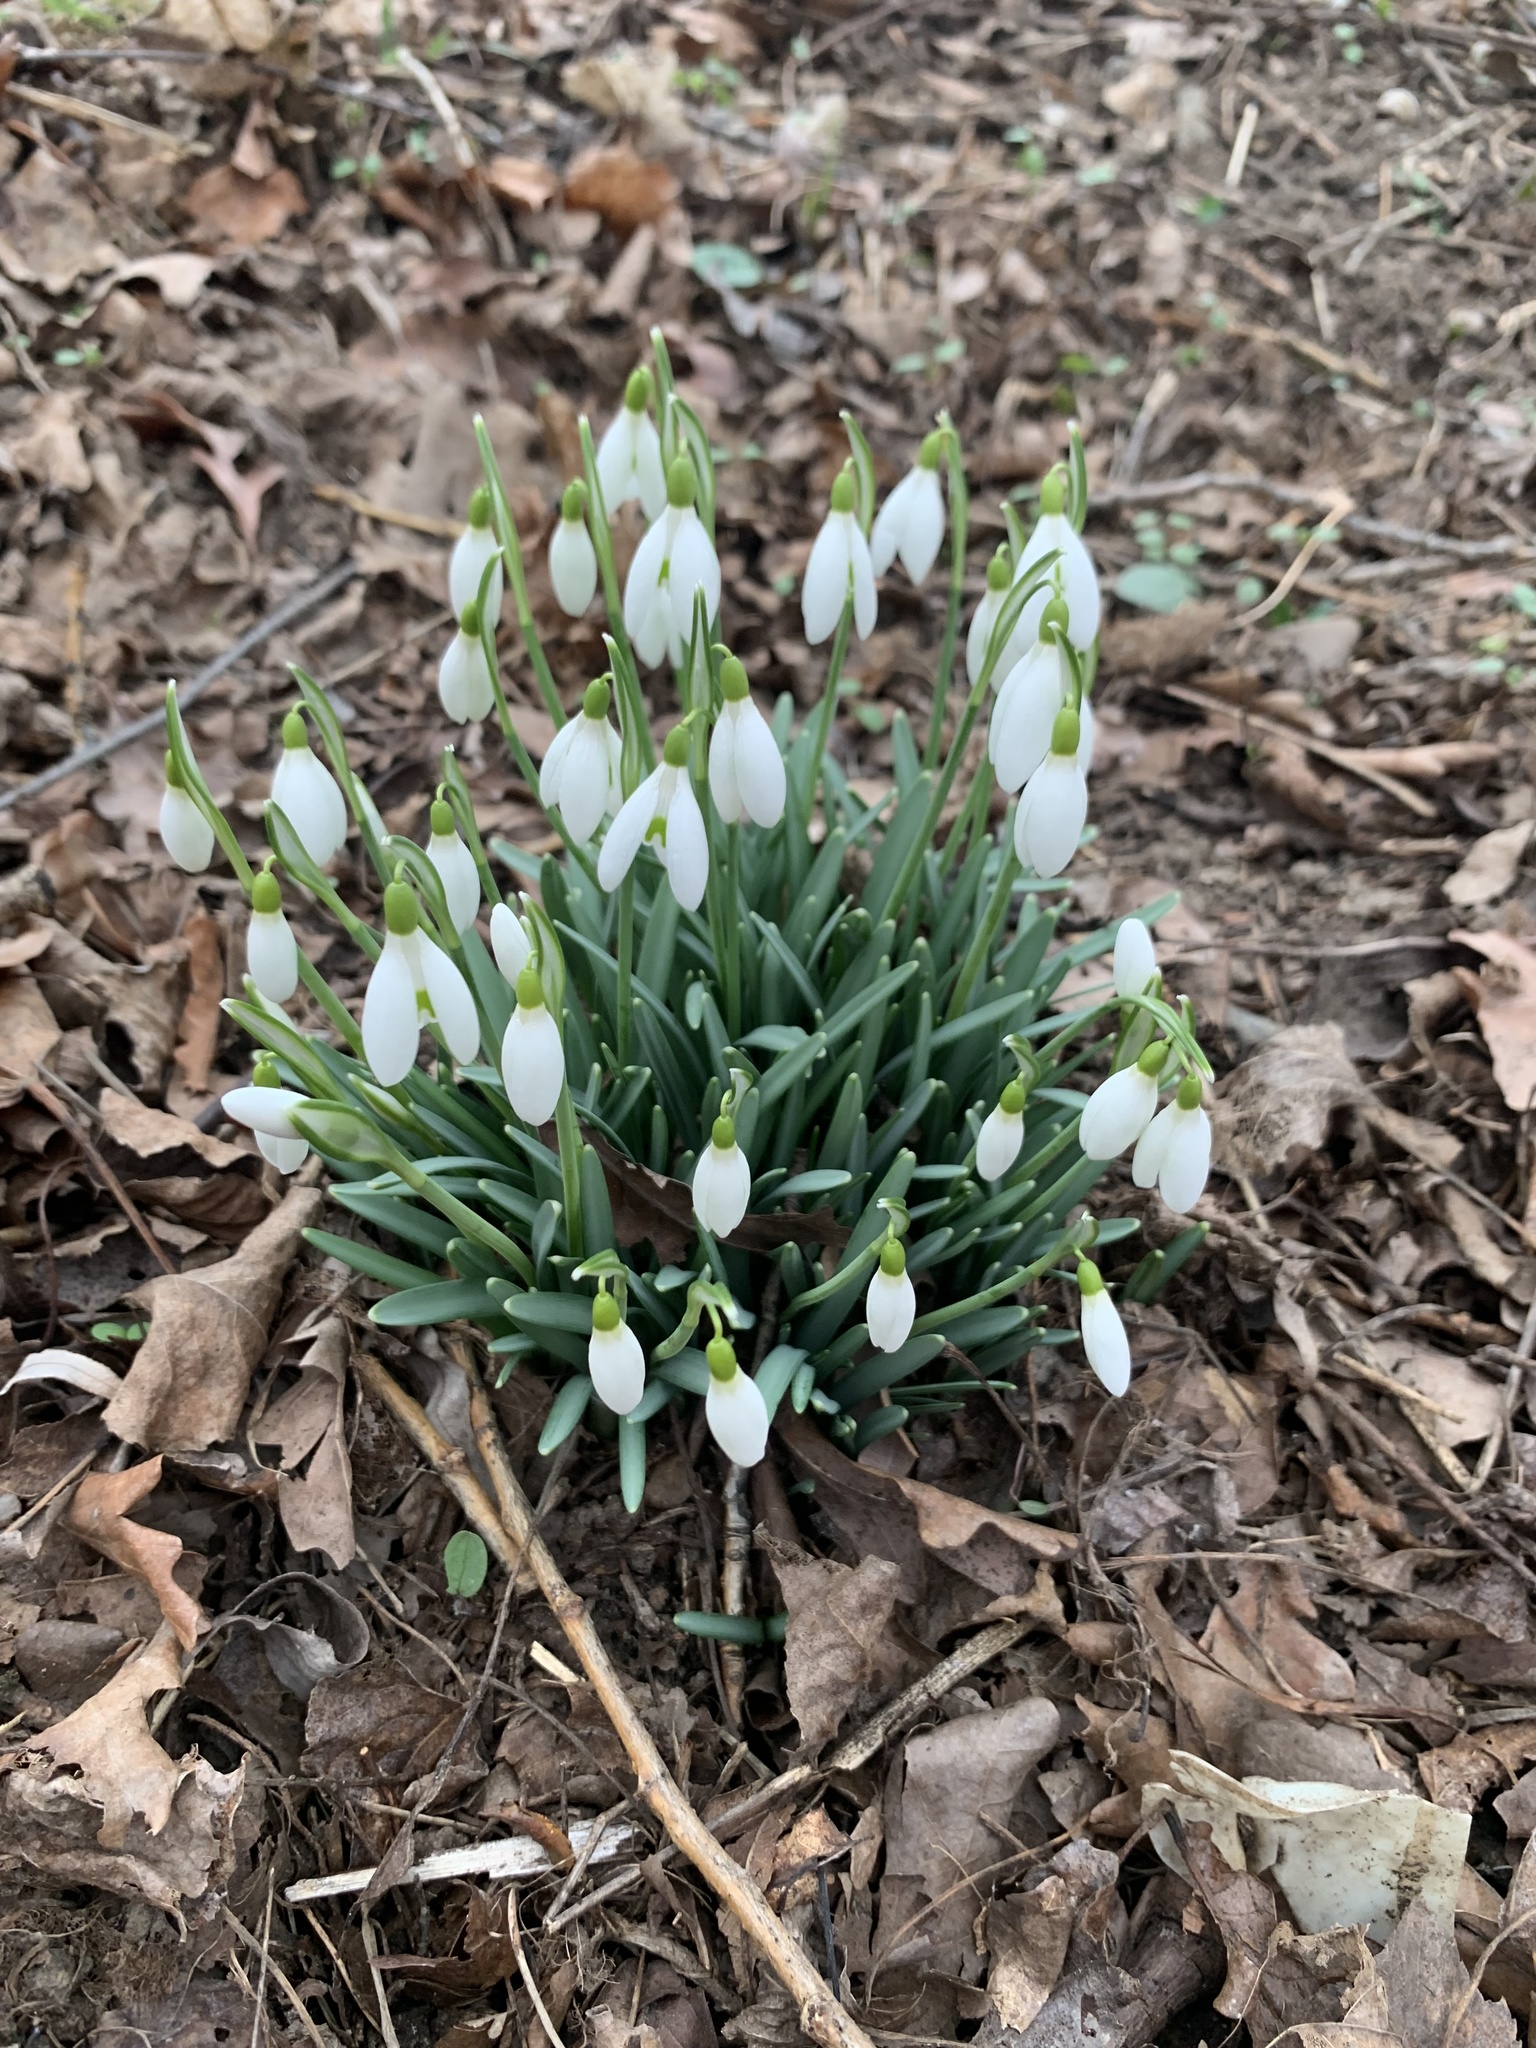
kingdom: Plantae
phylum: Tracheophyta
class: Liliopsida
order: Asparagales
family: Amaryllidaceae
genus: Galanthus
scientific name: Galanthus nivalis
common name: Snowdrop
